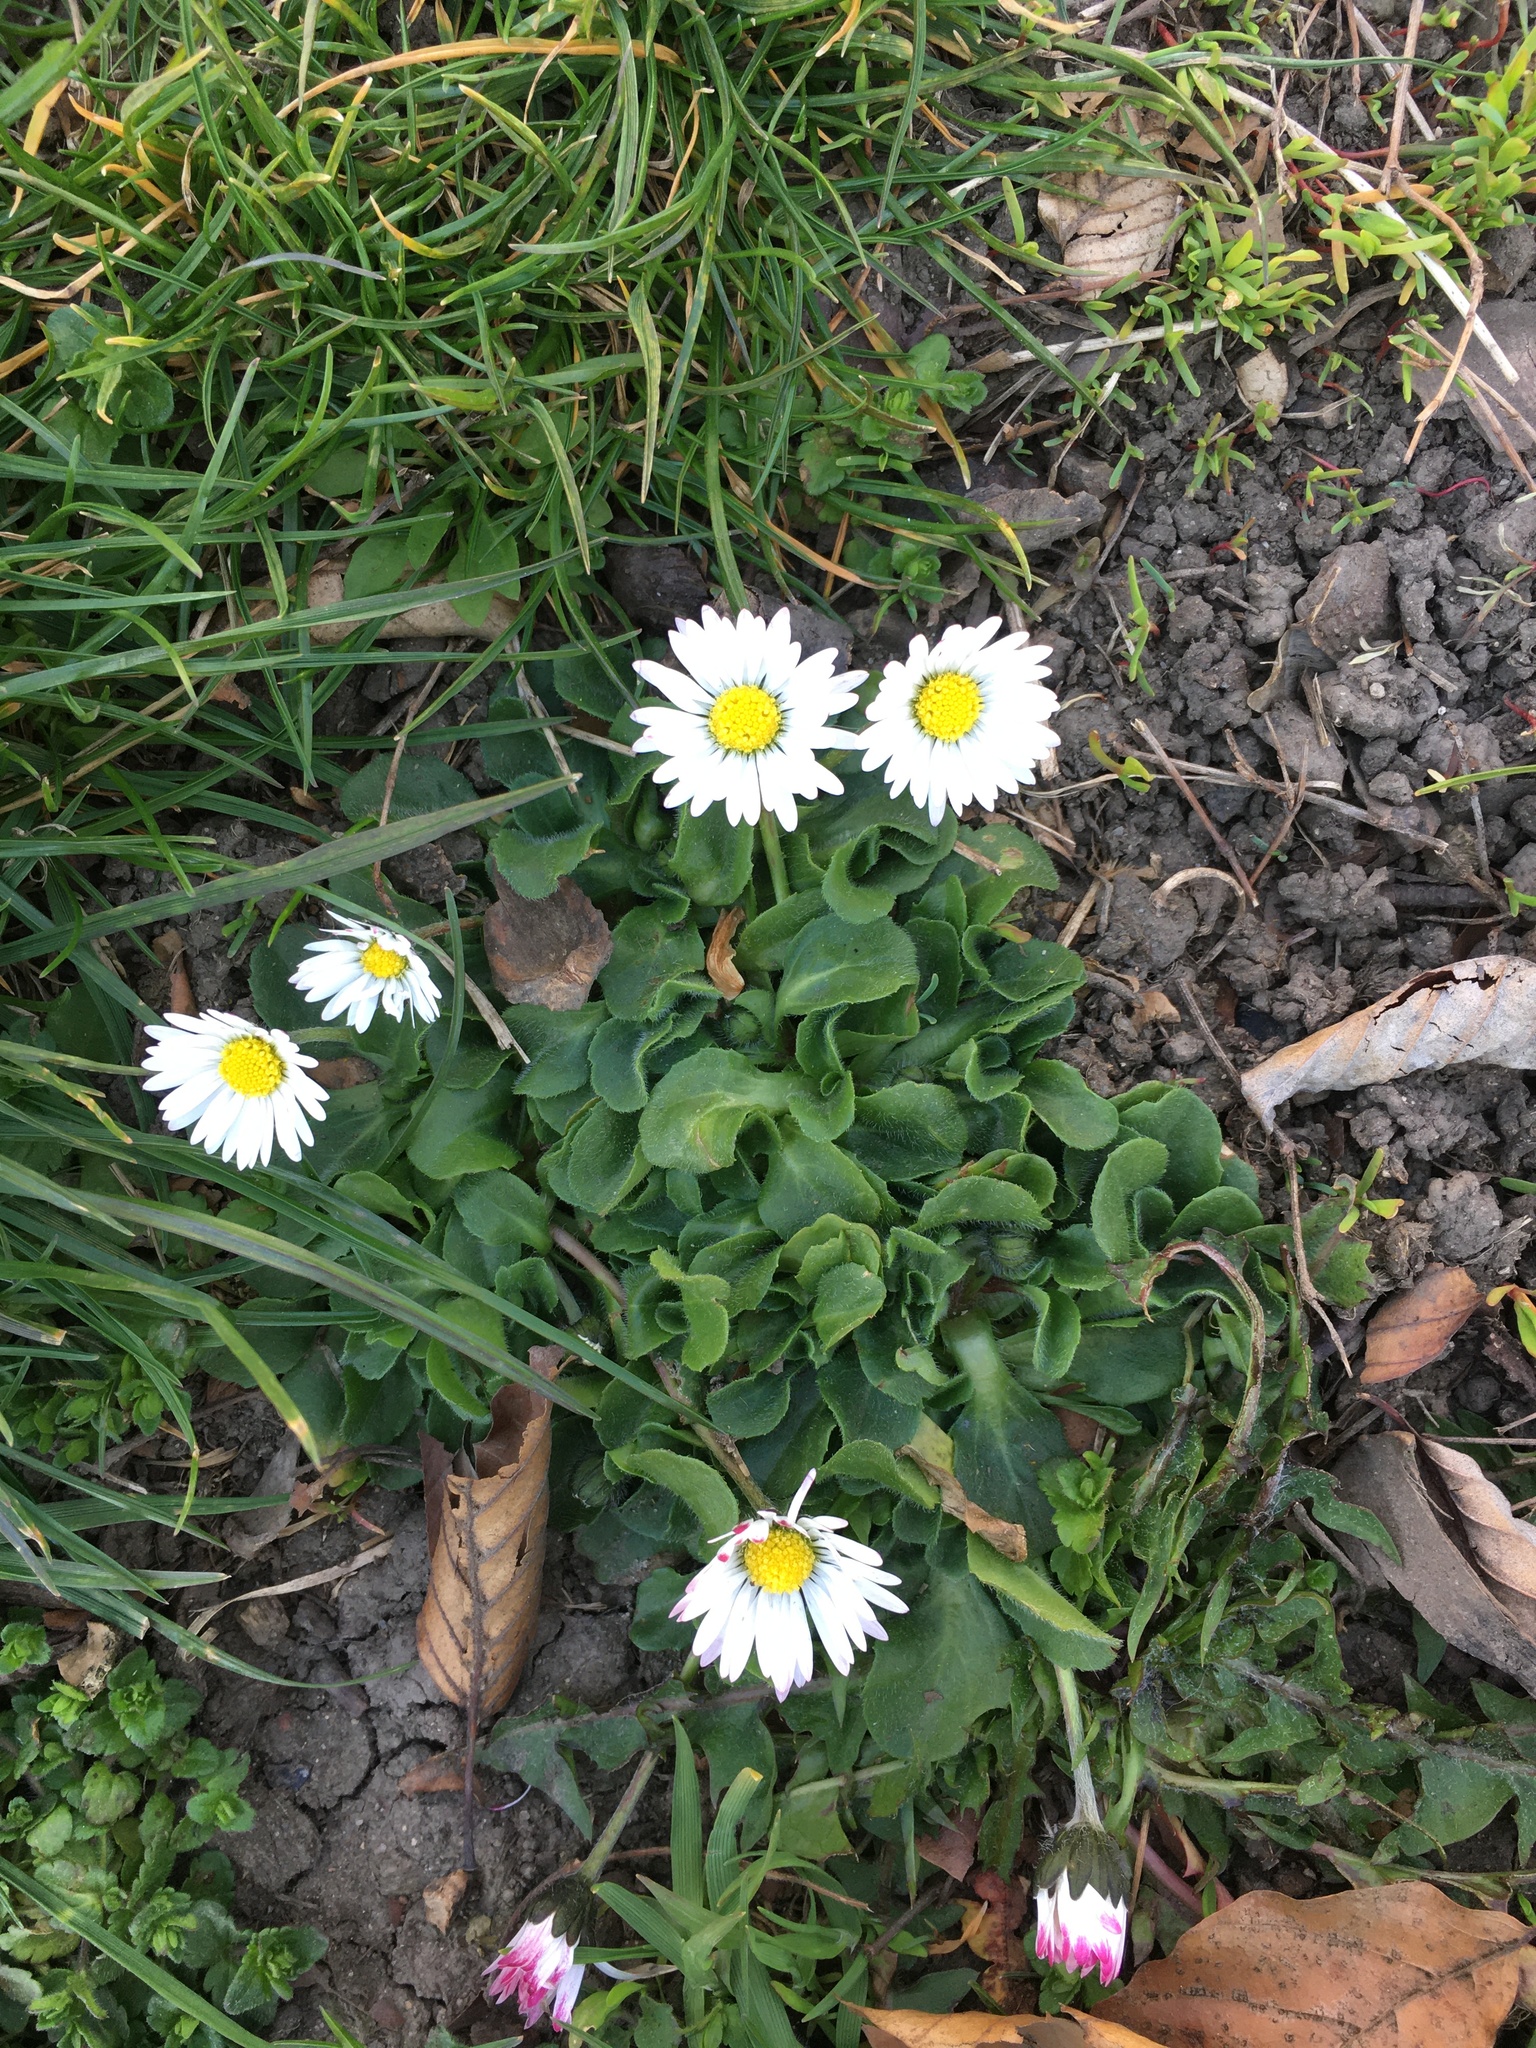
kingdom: Plantae
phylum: Tracheophyta
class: Magnoliopsida
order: Asterales
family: Asteraceae
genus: Bellis
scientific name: Bellis perennis
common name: Lawndaisy
